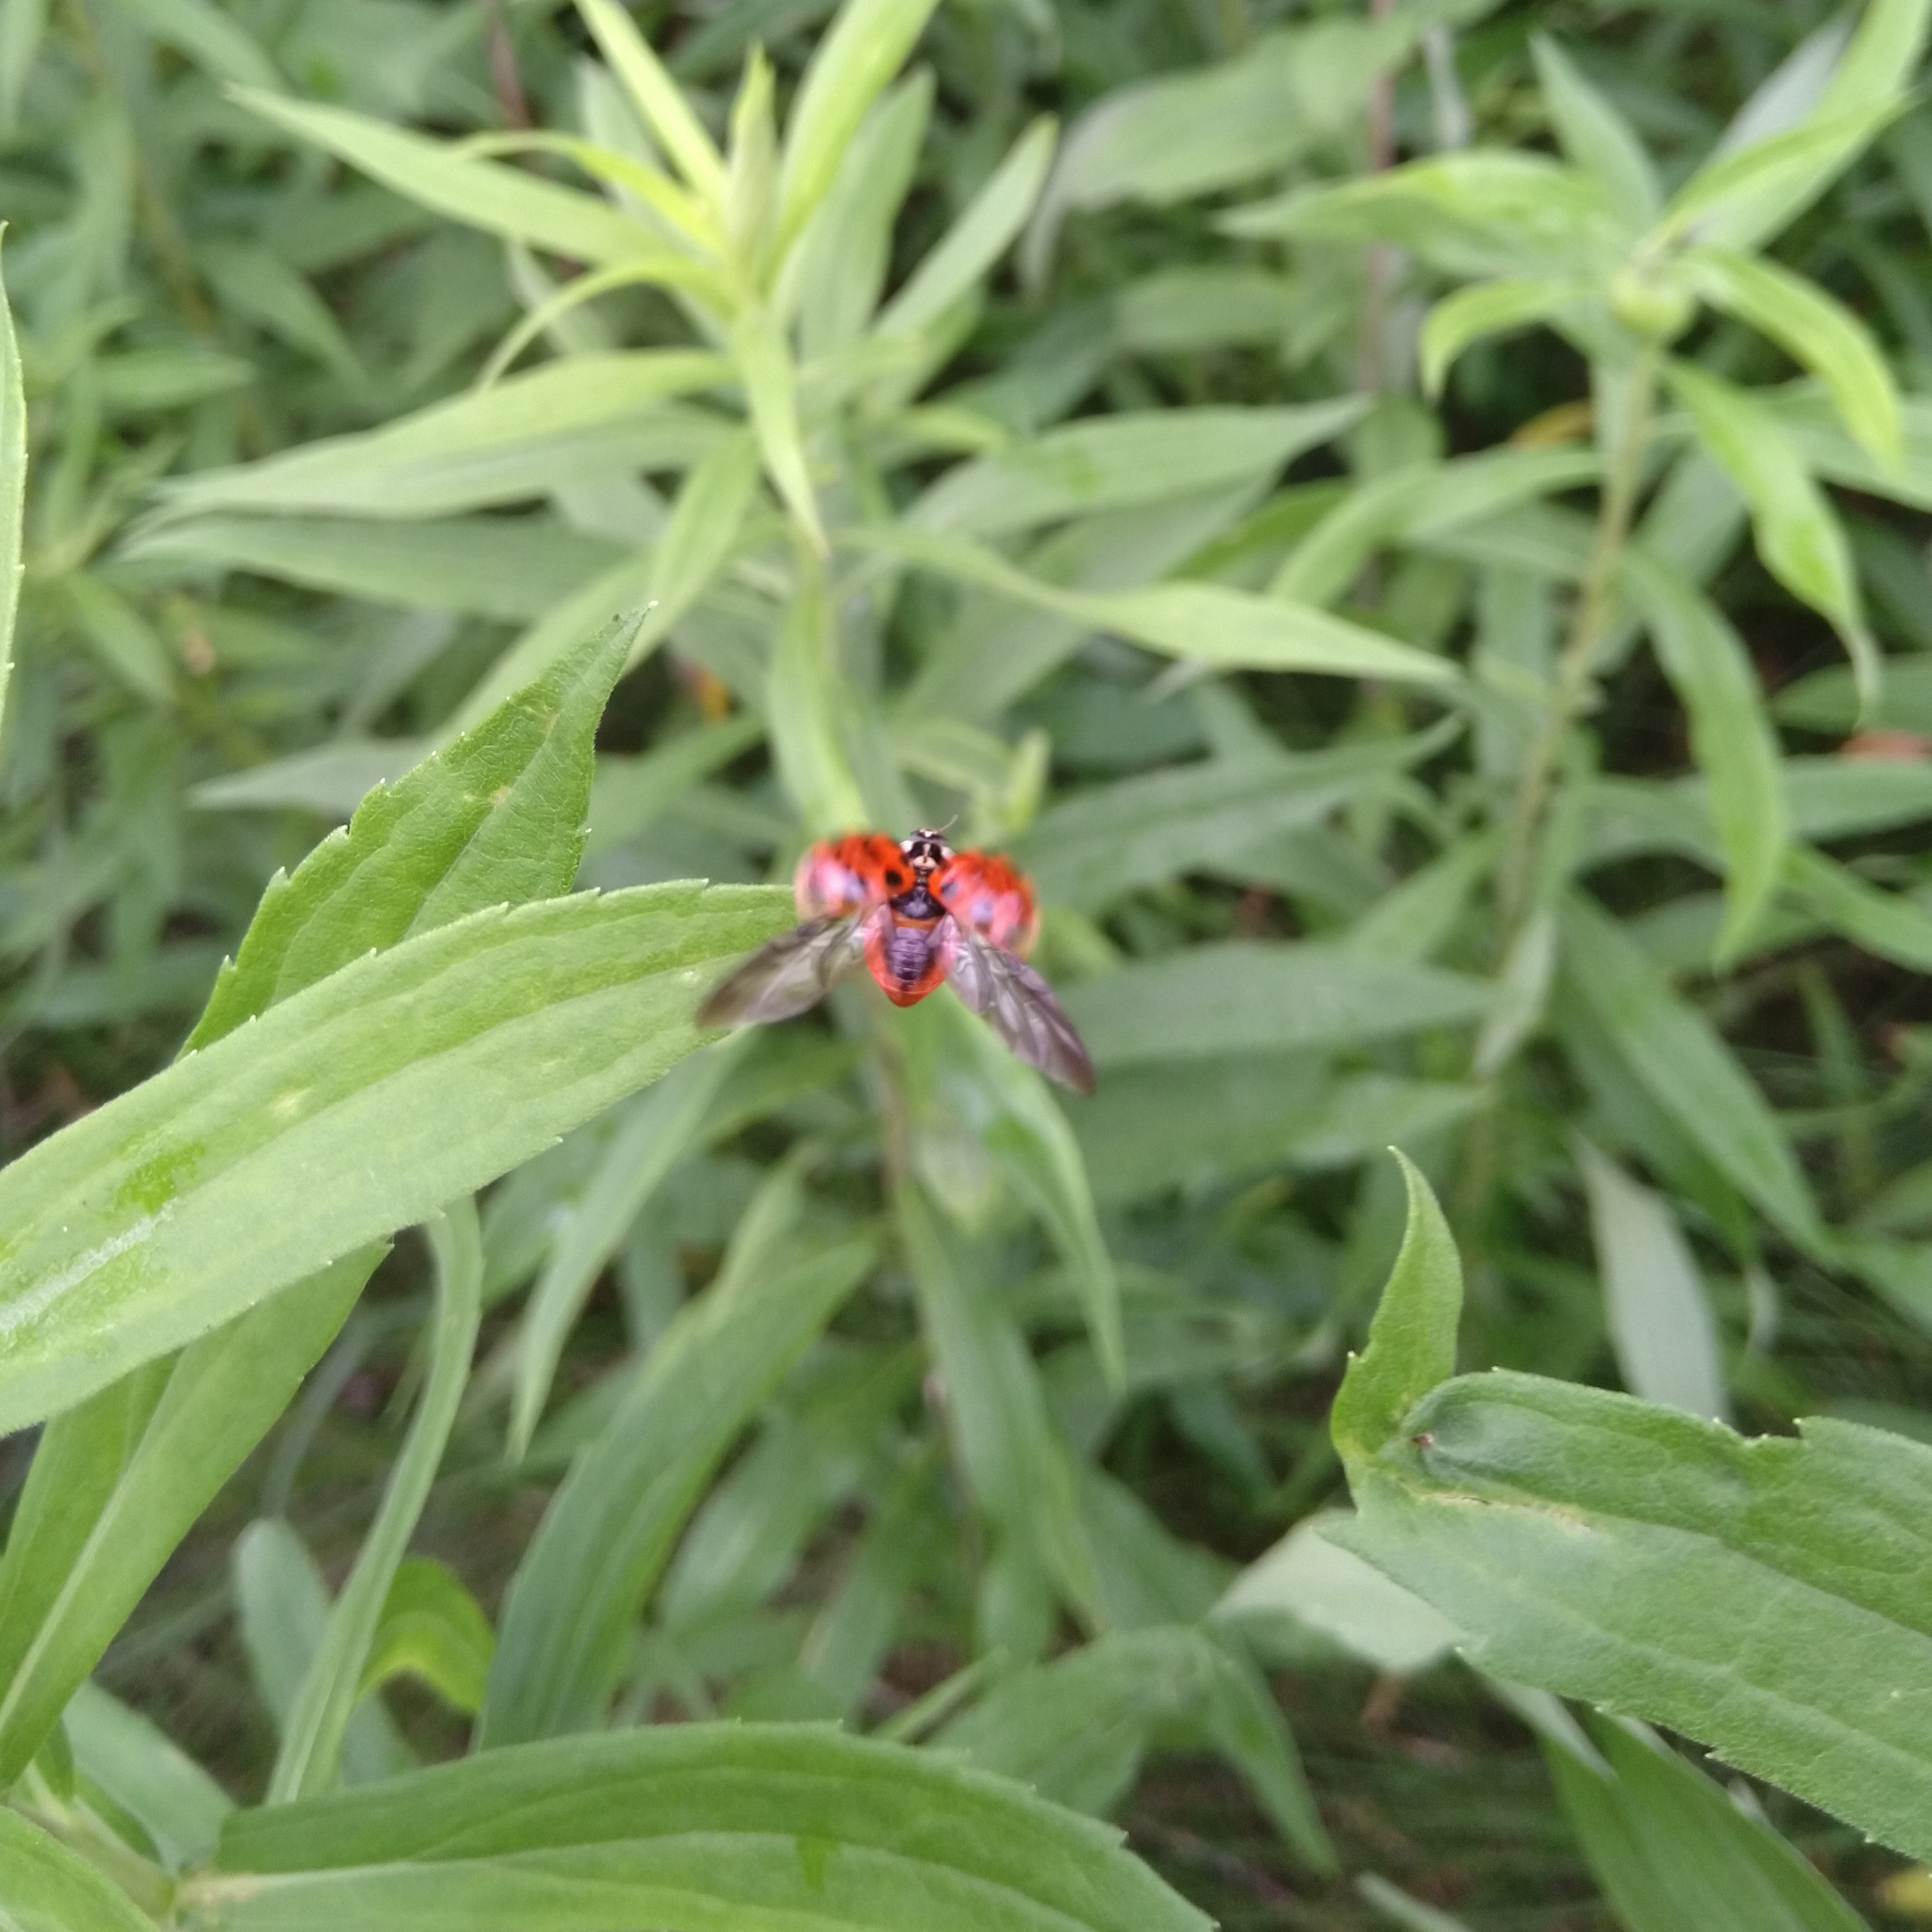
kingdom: Animalia
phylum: Arthropoda
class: Insecta
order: Coleoptera
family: Coccinellidae
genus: Harmonia
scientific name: Harmonia axyridis
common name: Harlequin ladybird
